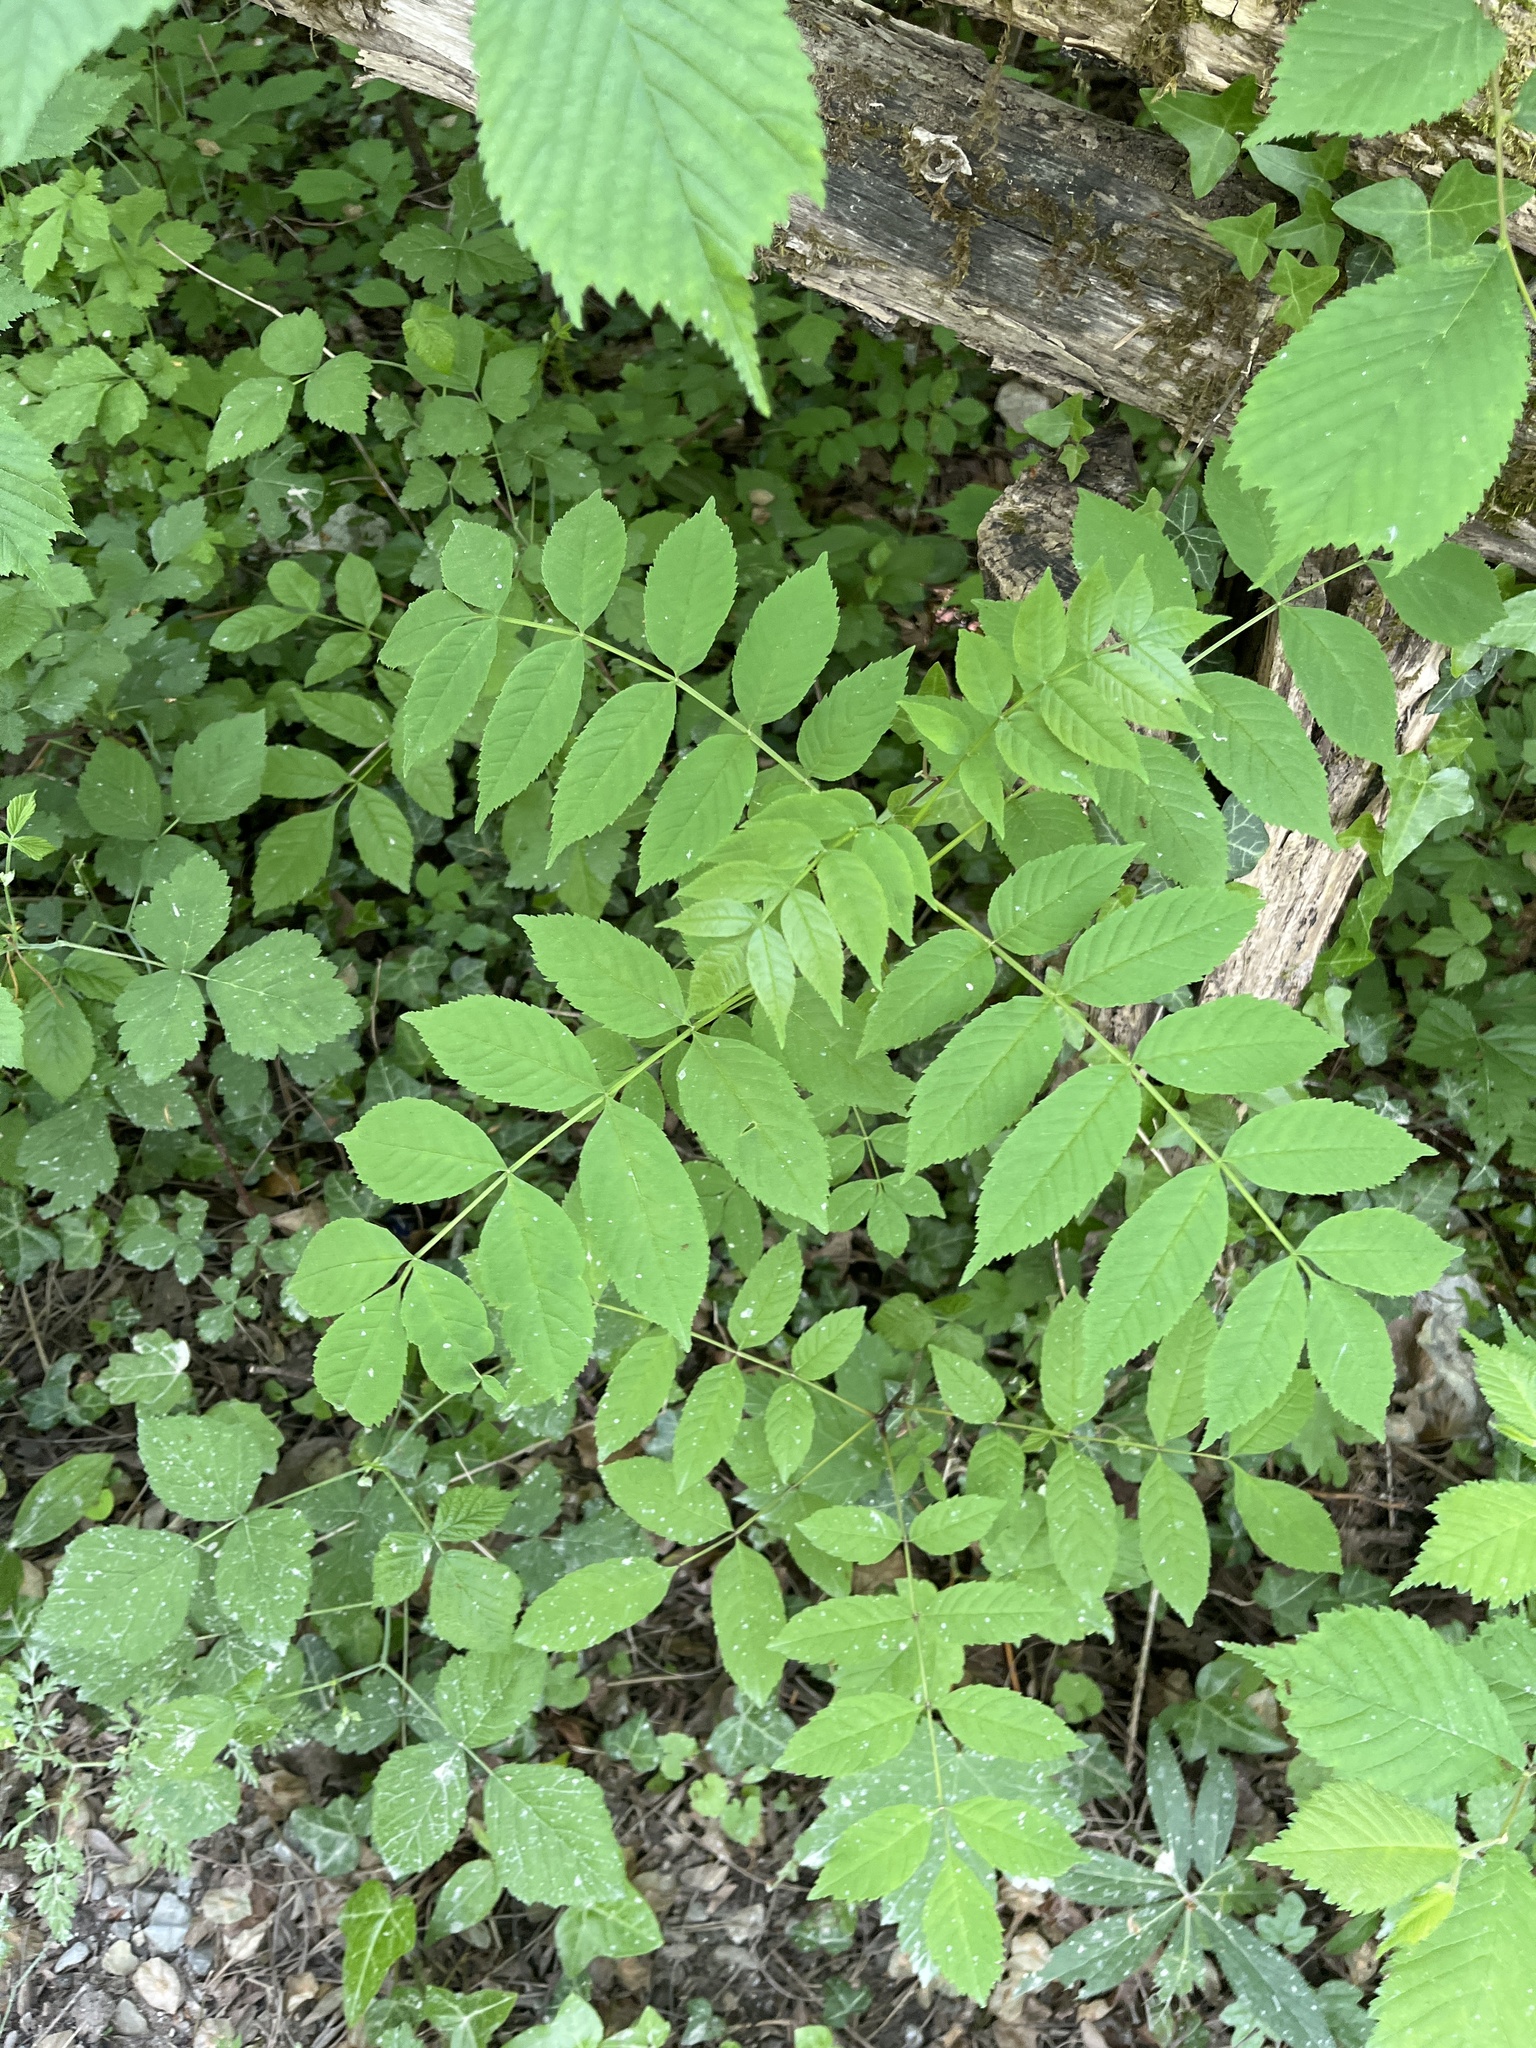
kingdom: Plantae
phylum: Tracheophyta
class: Magnoliopsida
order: Lamiales
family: Oleaceae
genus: Fraxinus
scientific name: Fraxinus excelsior
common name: European ash
